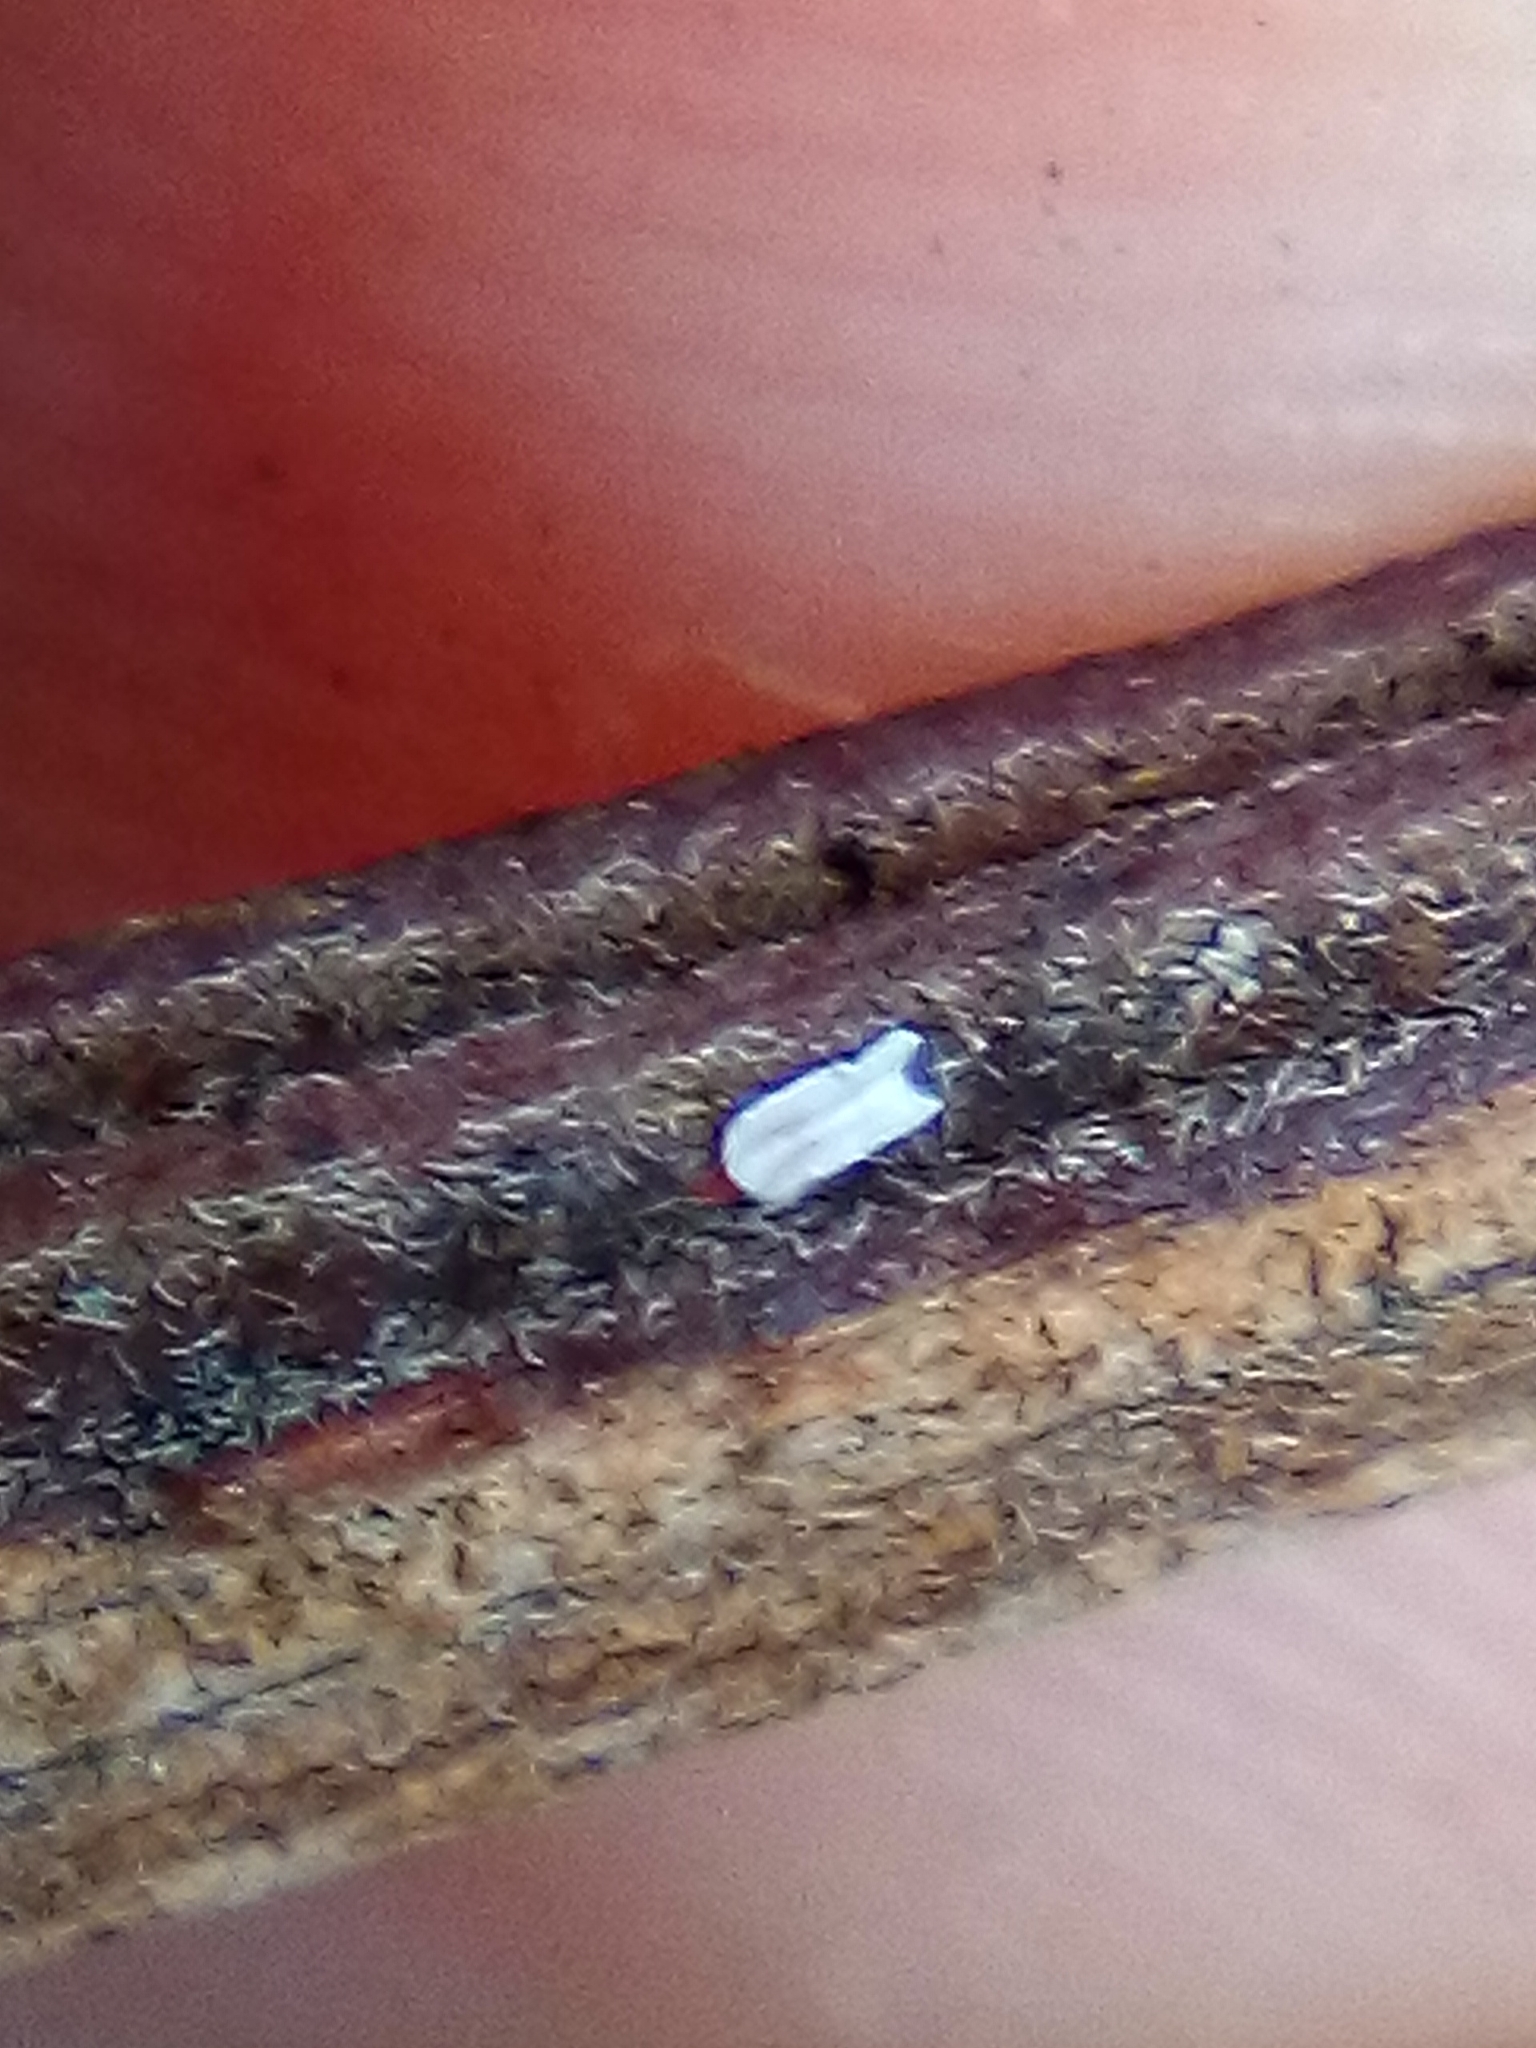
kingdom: Animalia
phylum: Arthropoda
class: Insecta
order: Hemiptera
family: Diaspididae
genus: Trullifiorinia
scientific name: Trullifiorinia acaciae
